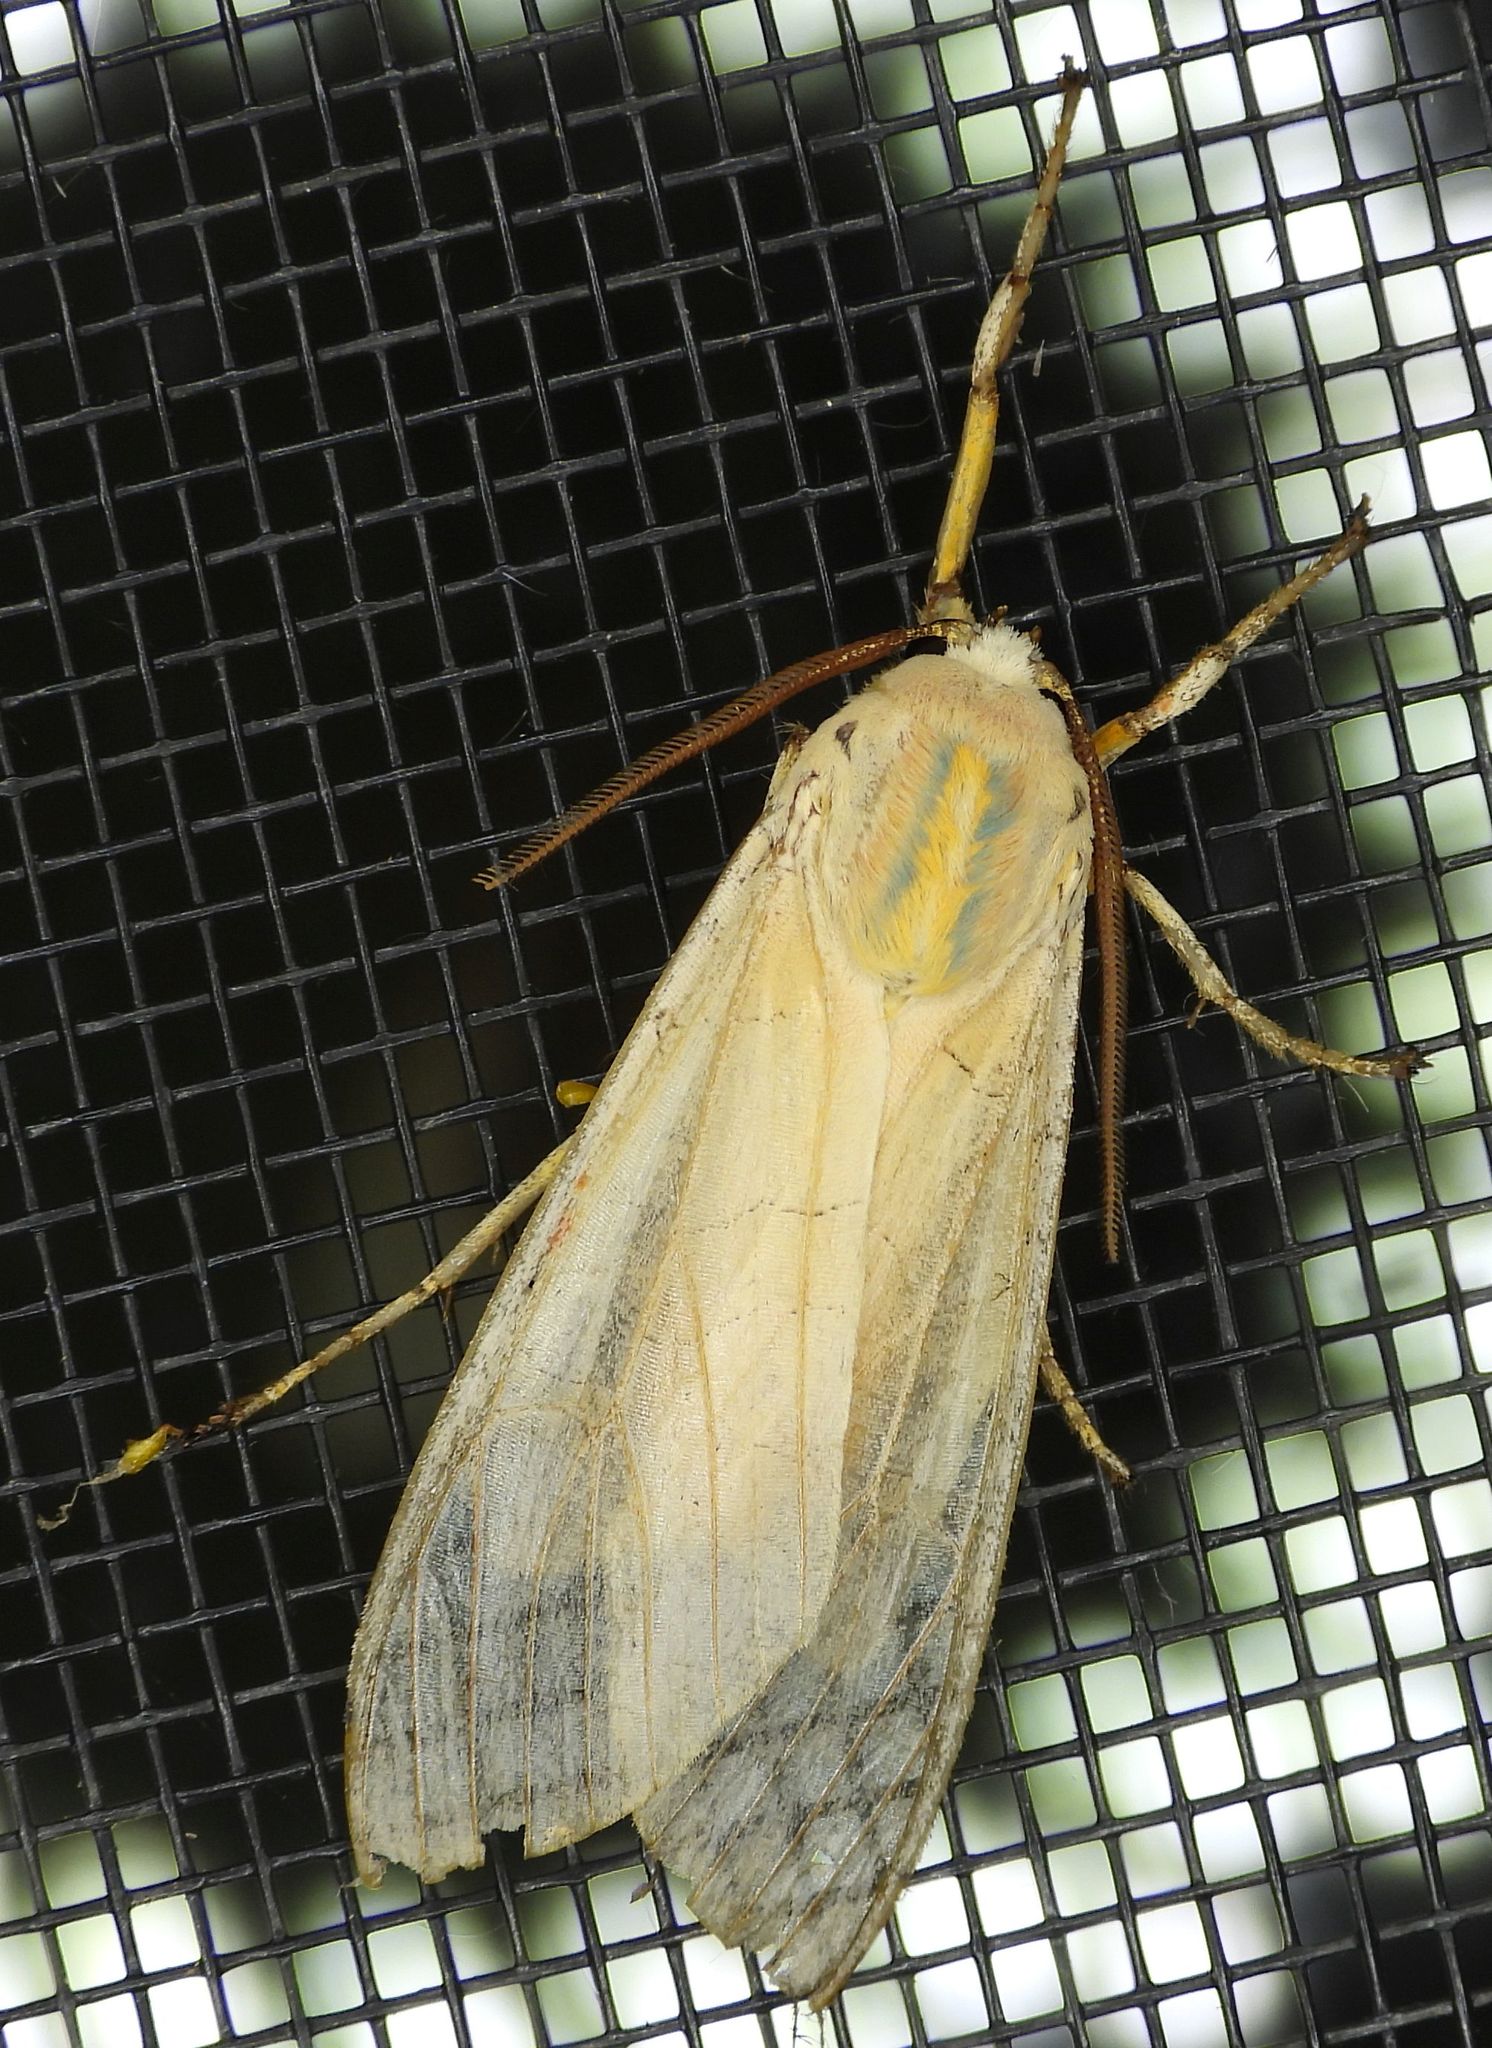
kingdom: Animalia
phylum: Arthropoda
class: Insecta
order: Lepidoptera
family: Erebidae
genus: Halysidota
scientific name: Halysidota tessellaris
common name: Banded tussock moth
